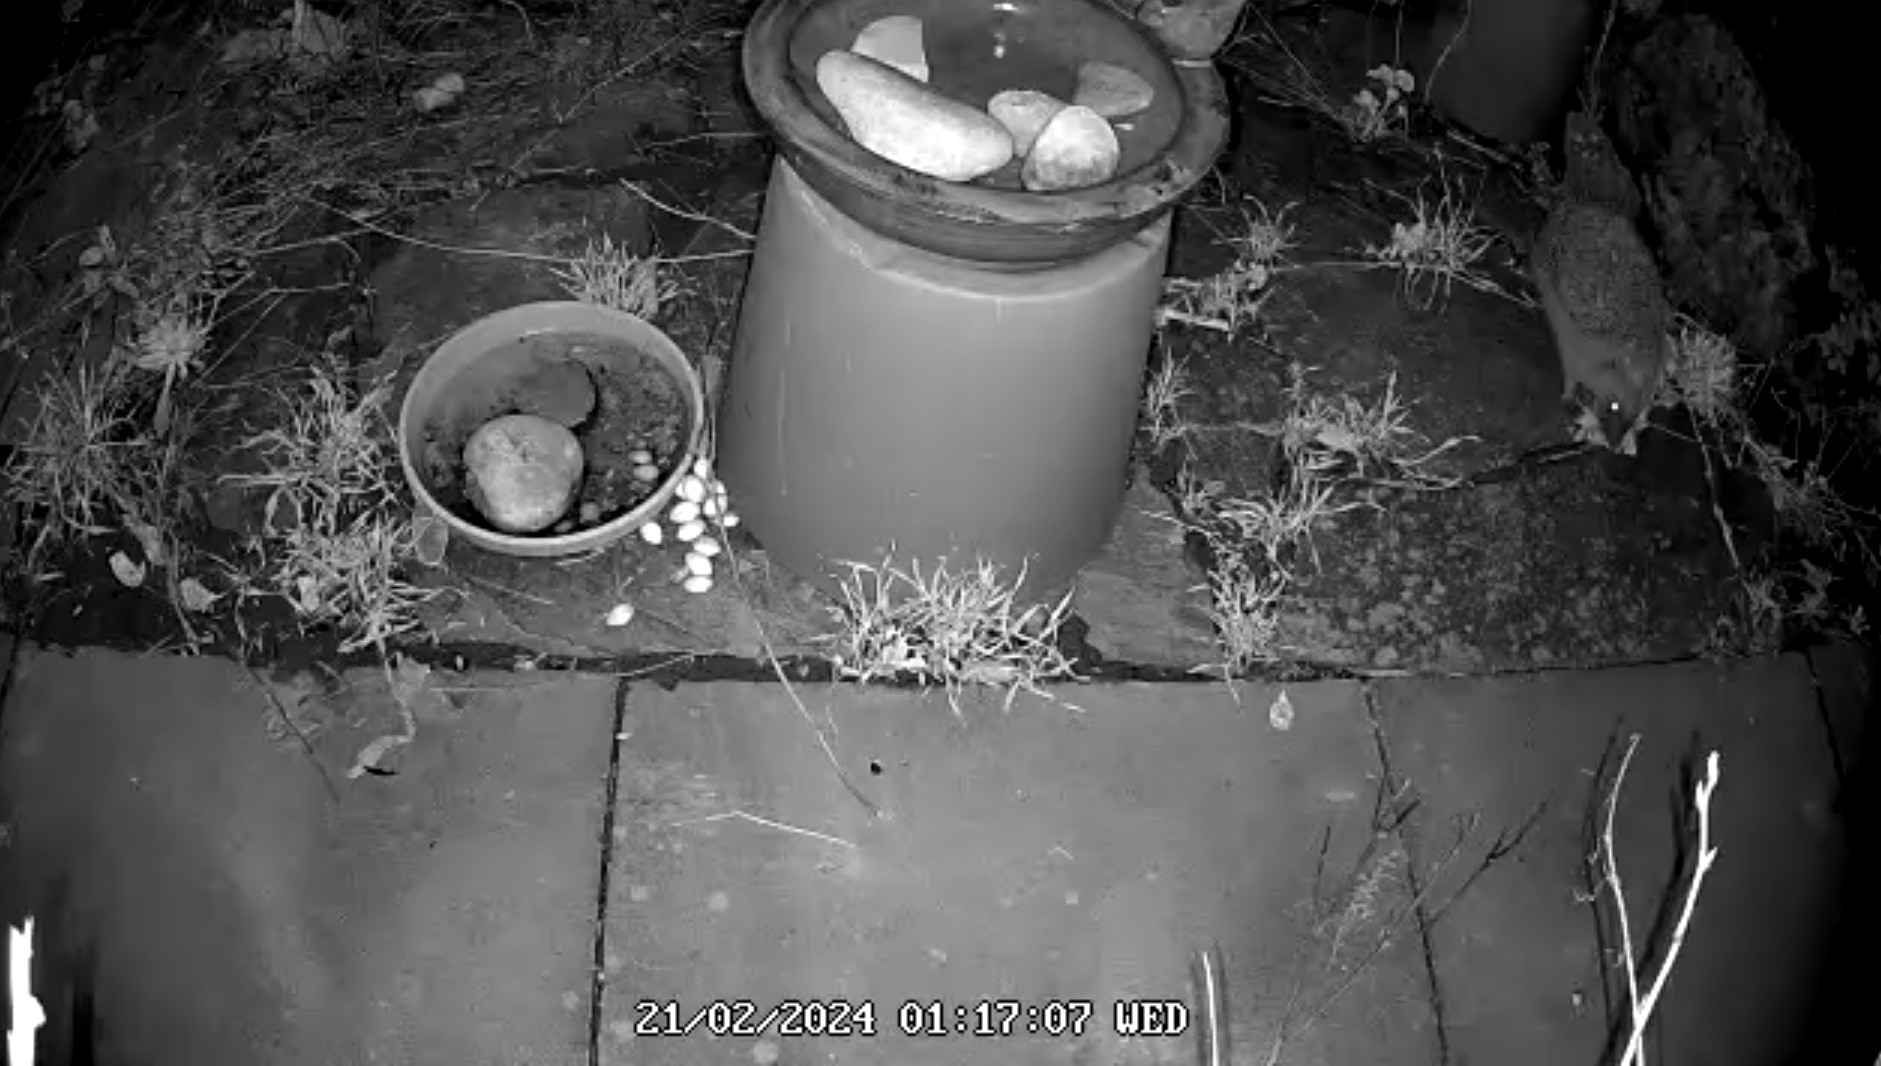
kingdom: Animalia
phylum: Chordata
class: Mammalia
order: Erinaceomorpha
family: Erinaceidae
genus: Erinaceus
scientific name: Erinaceus europaeus
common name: West european hedgehog
